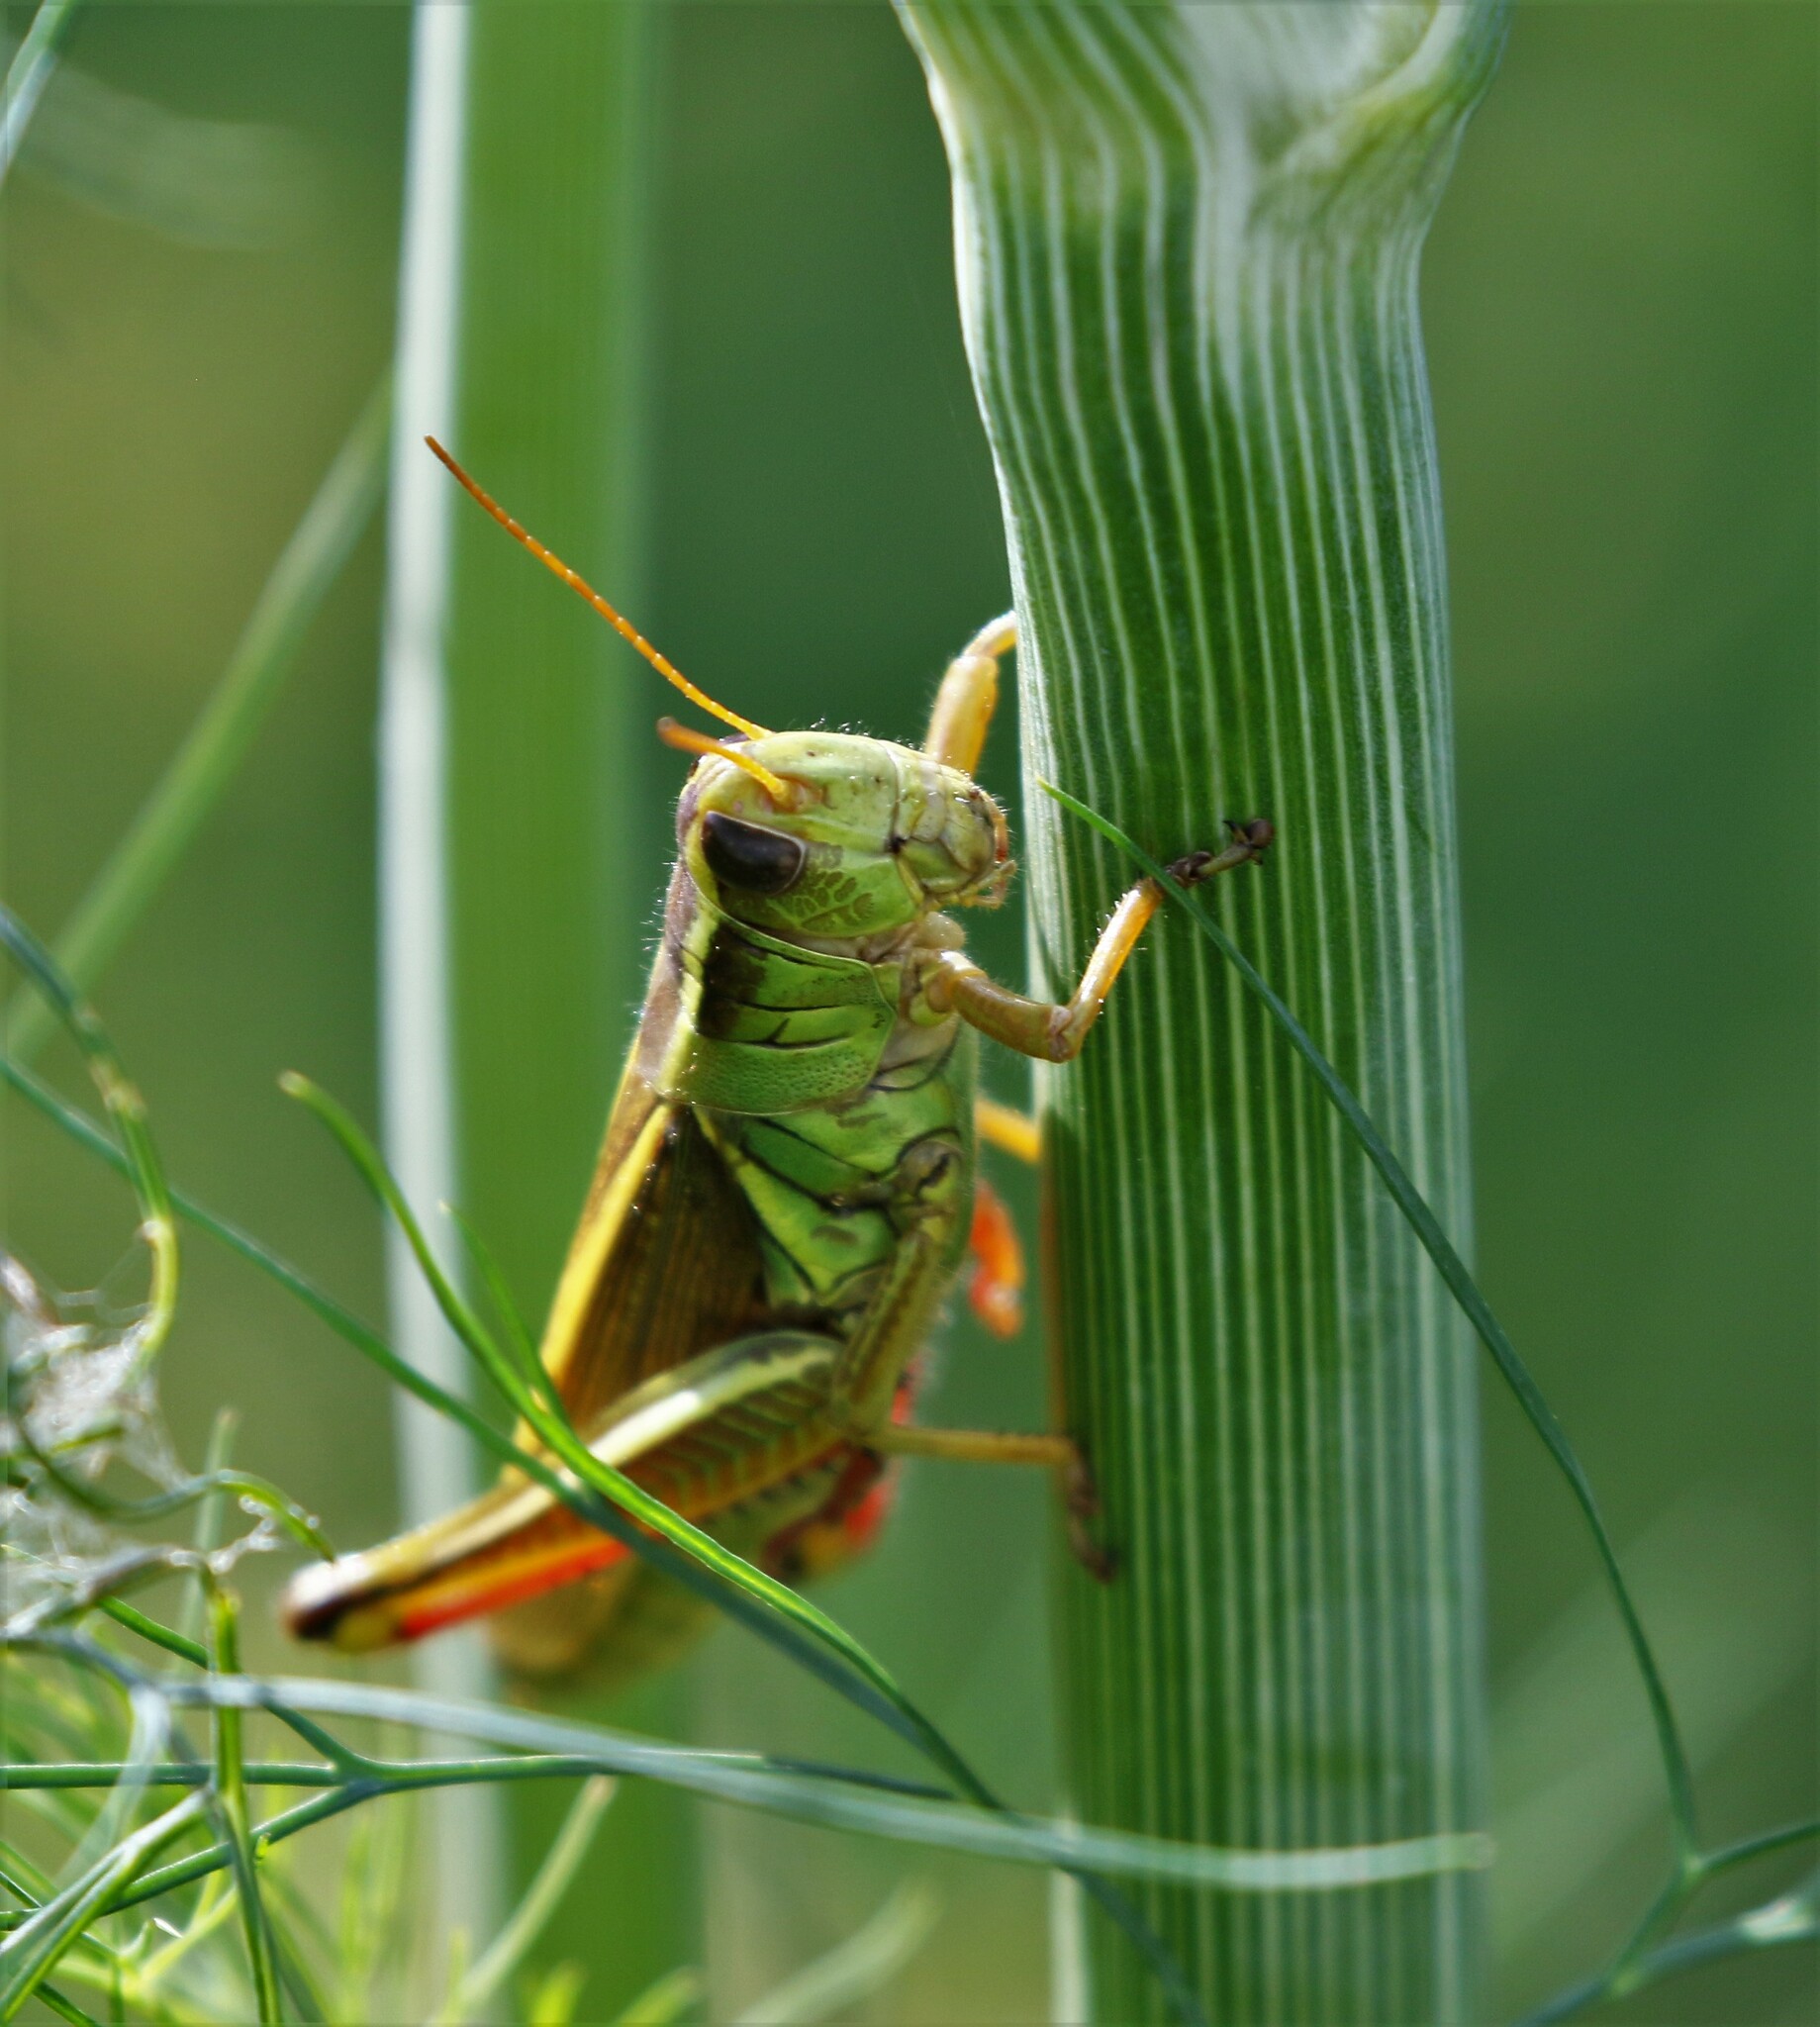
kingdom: Animalia
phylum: Arthropoda
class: Insecta
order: Orthoptera
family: Acrididae
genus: Melanoplus
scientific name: Melanoplus bivittatus
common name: Two-striped grasshopper
